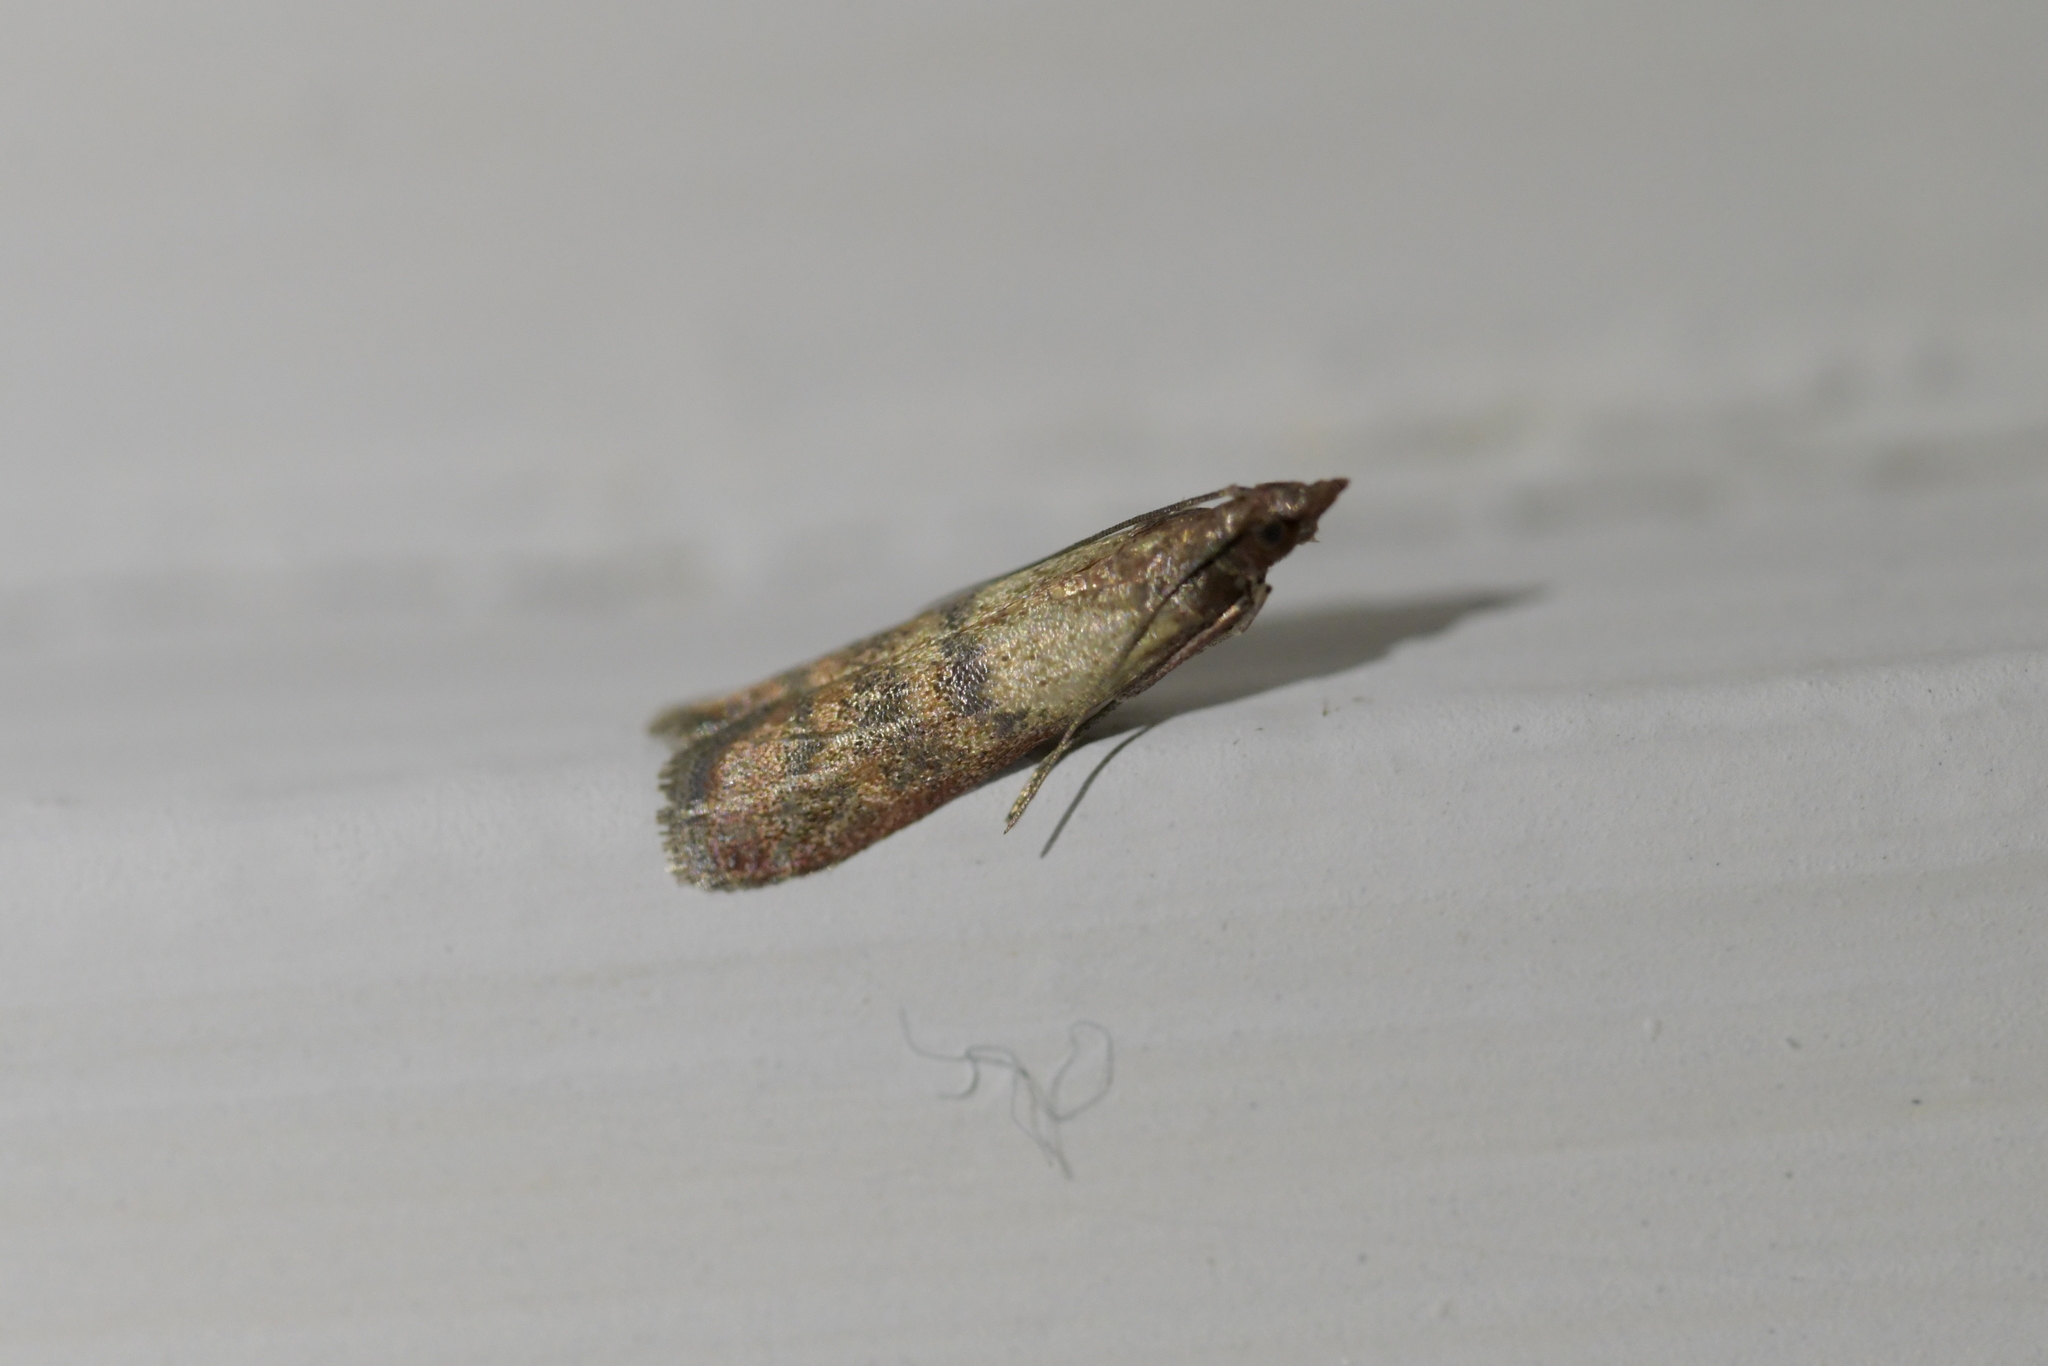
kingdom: Animalia
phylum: Arthropoda
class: Insecta
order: Lepidoptera
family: Pyralidae
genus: Plodia
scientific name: Plodia interpunctella
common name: Indian meal moth
